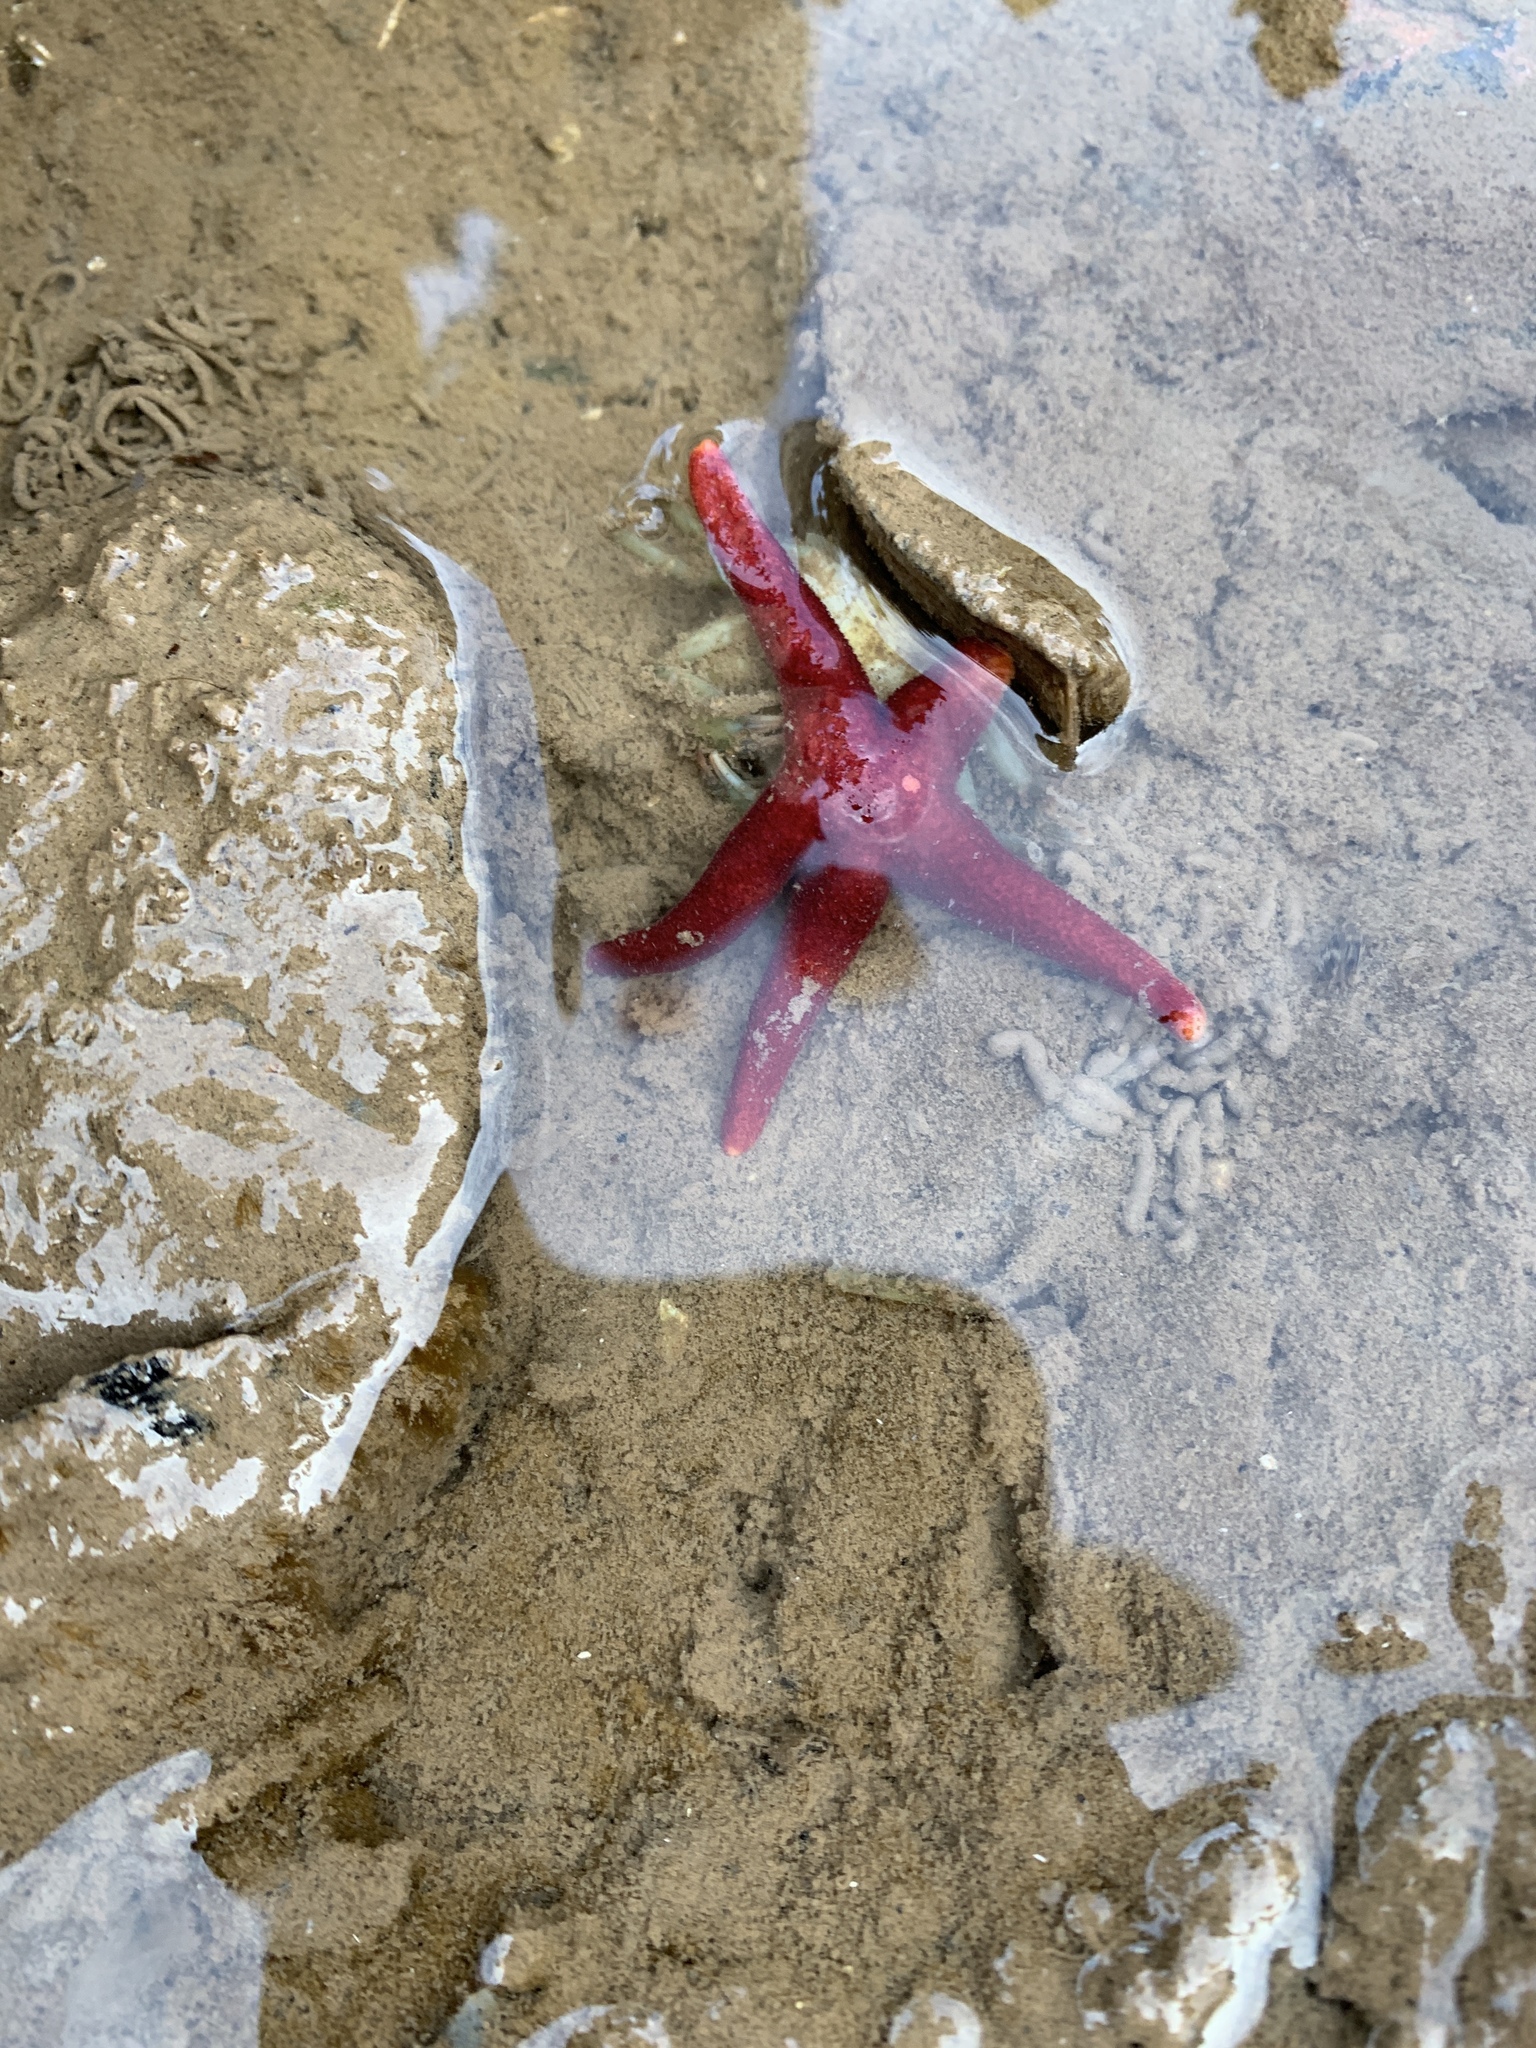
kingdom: Animalia
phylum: Echinodermata
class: Asteroidea
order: Spinulosida
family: Echinasteridae
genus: Henricia
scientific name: Henricia sanguinolenta
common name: Blood star
